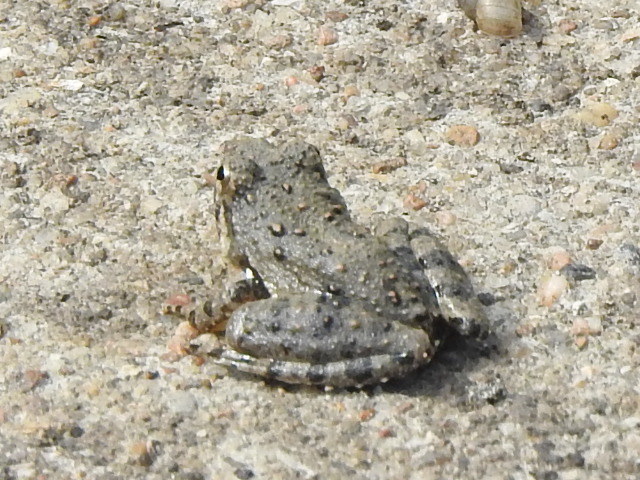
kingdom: Animalia
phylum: Chordata
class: Amphibia
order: Anura
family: Hylidae
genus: Acris
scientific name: Acris blanchardi
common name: Blanchard's cricket frog
